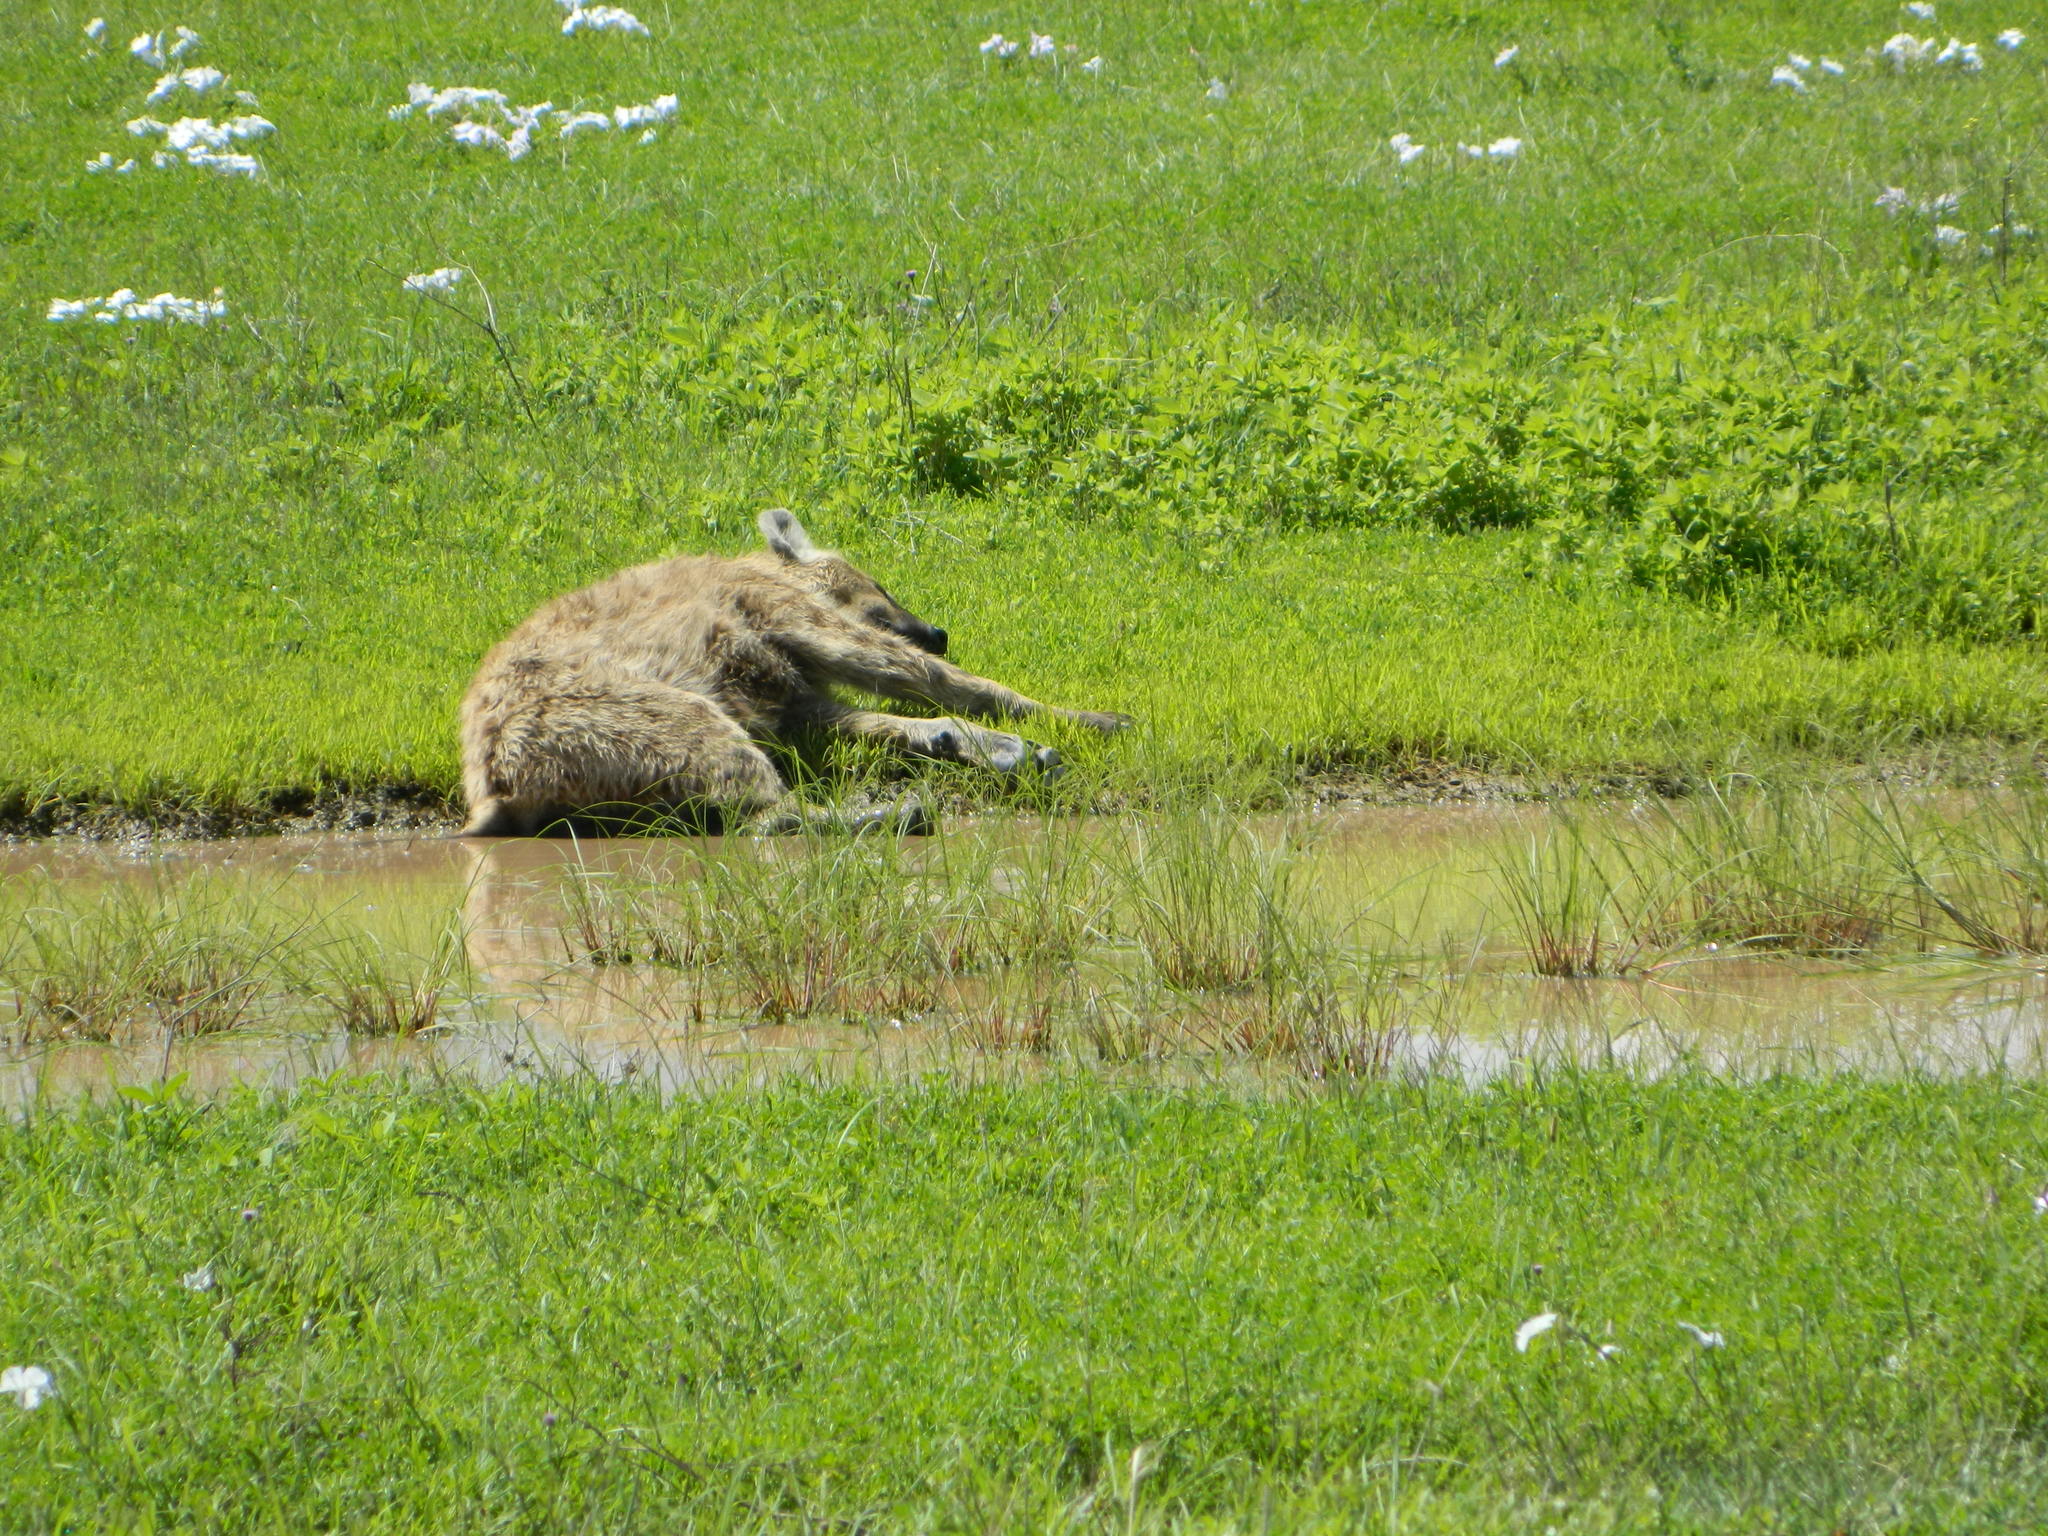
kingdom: Animalia
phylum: Chordata
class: Mammalia
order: Carnivora
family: Hyaenidae
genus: Crocuta
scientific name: Crocuta crocuta
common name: Spotted hyaena
